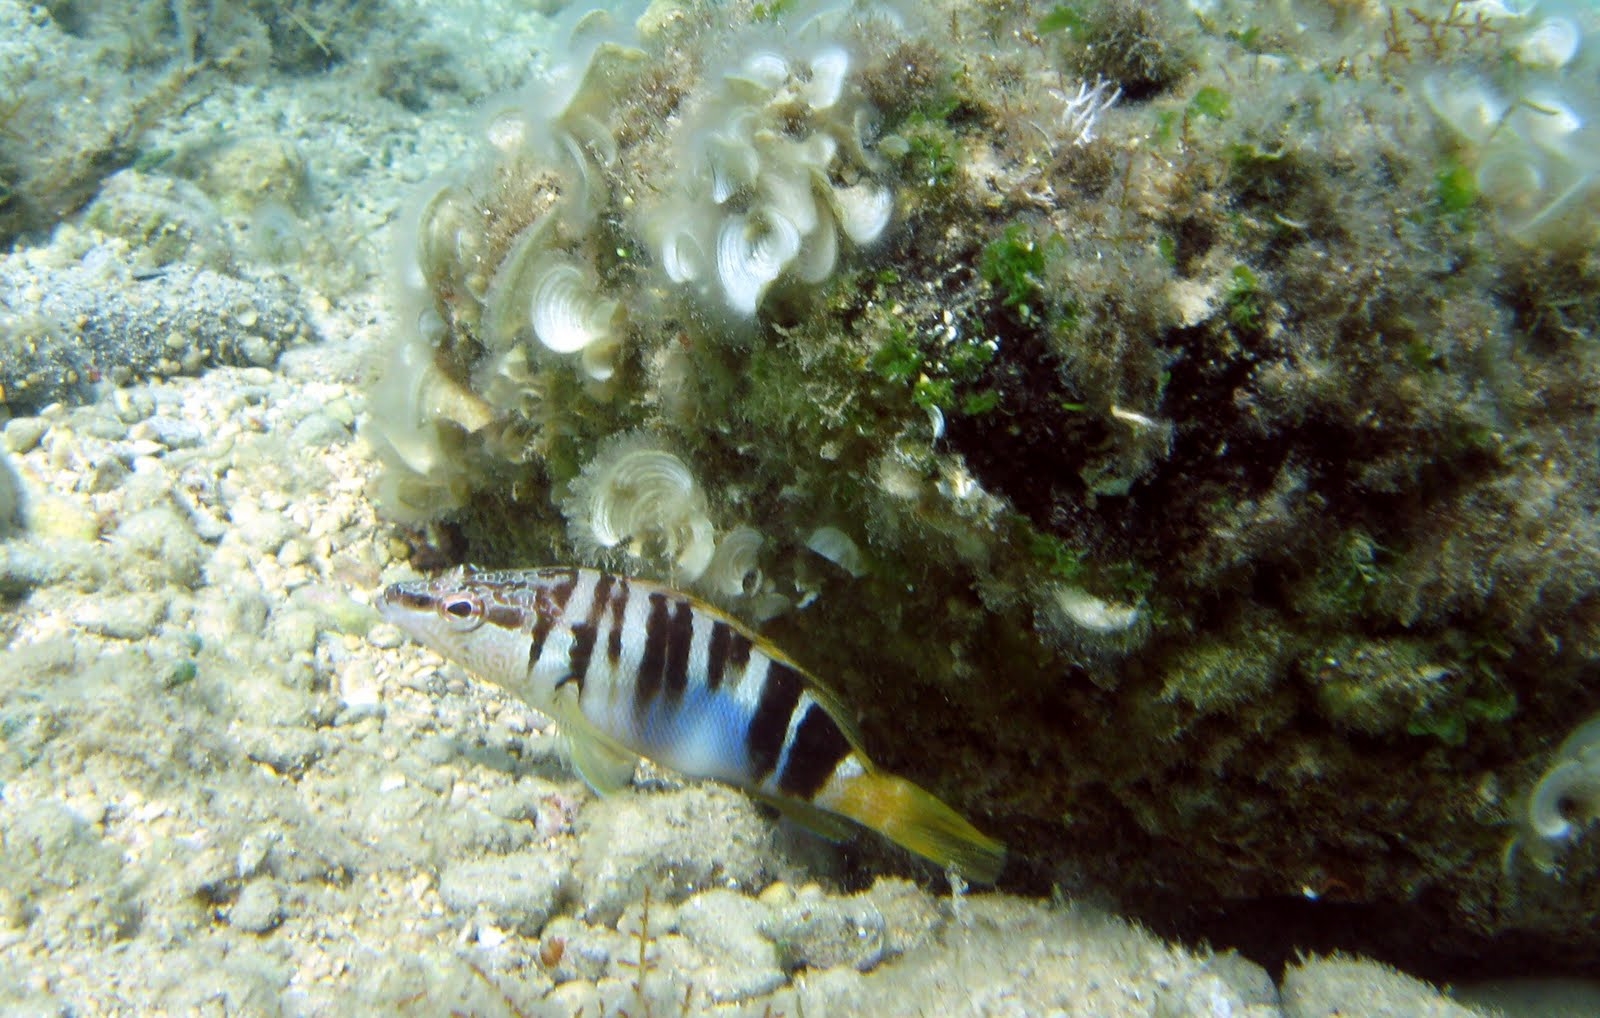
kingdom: Animalia
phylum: Chordata
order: Perciformes
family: Serranidae
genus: Serranus
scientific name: Serranus scriba
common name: Painted comber
